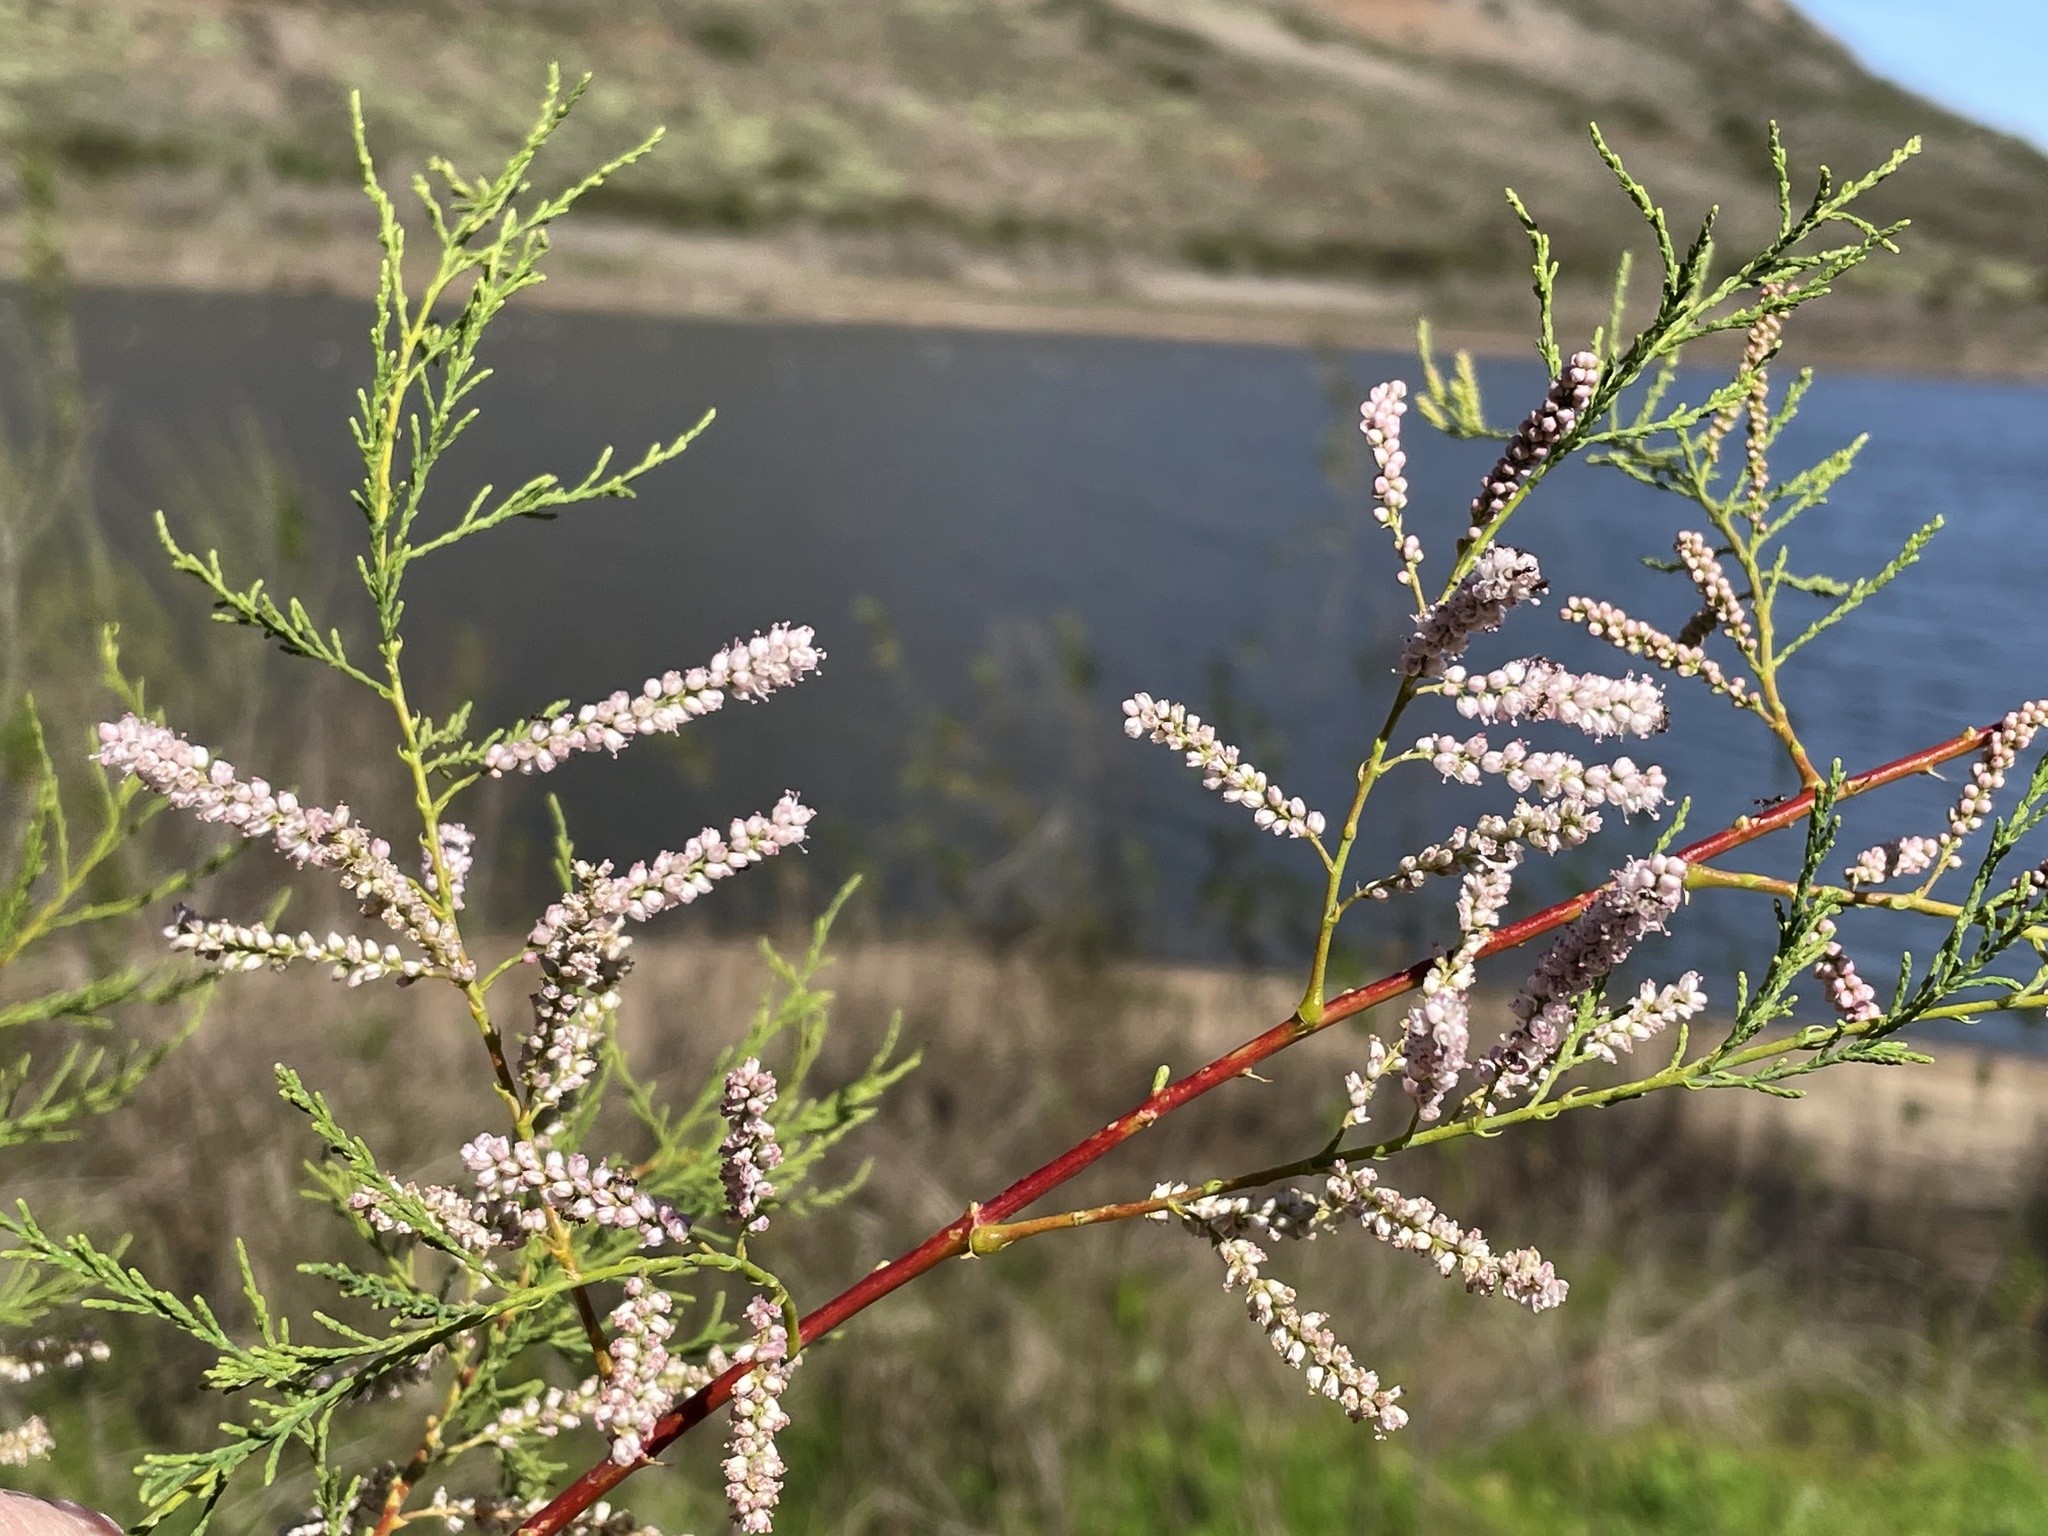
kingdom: Plantae
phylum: Tracheophyta
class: Magnoliopsida
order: Caryophyllales
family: Tamaricaceae
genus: Tamarix
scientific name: Tamarix ramosissima
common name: Pink tamarisk
